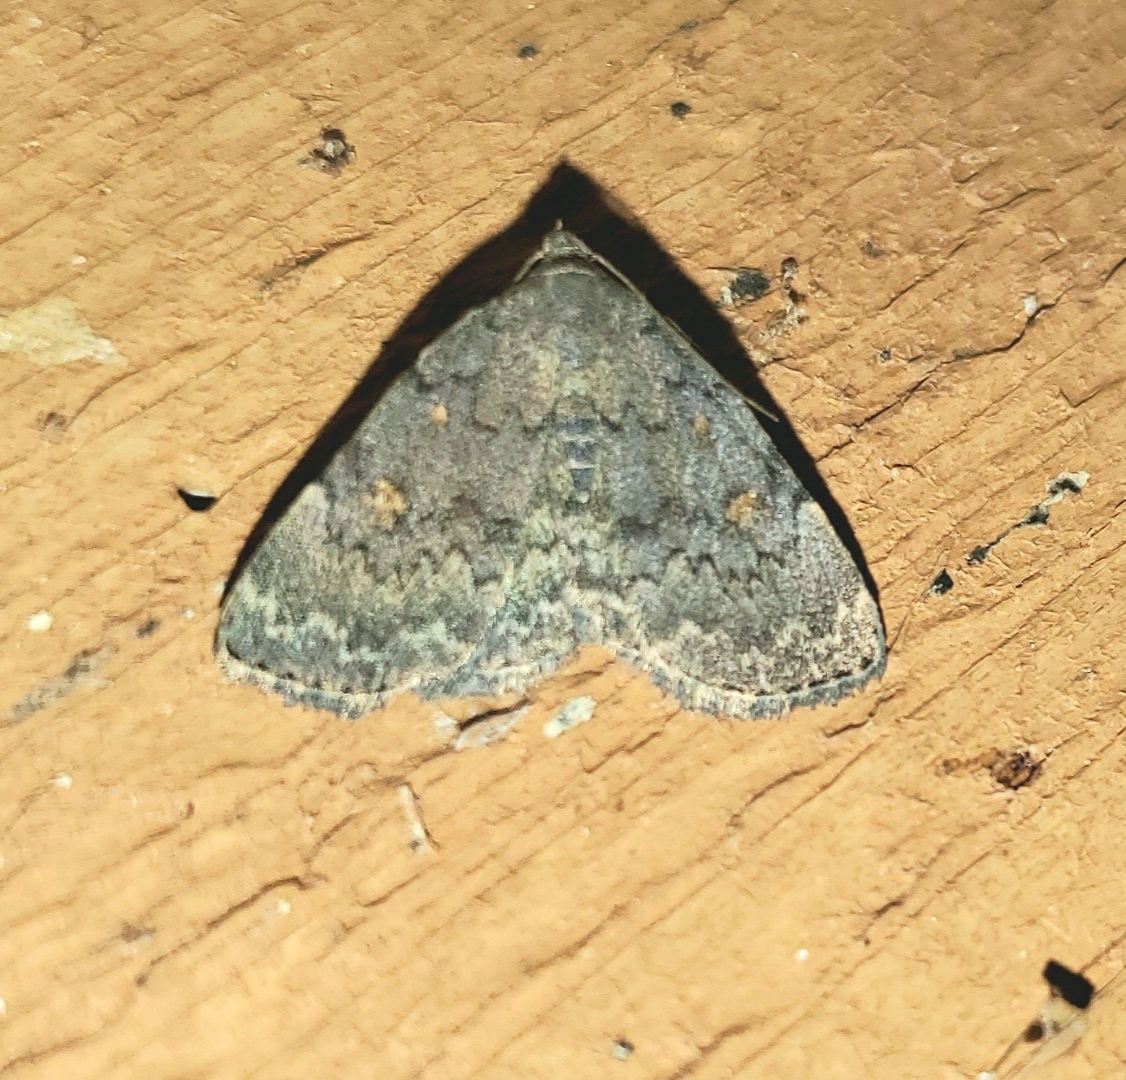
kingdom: Animalia
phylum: Arthropoda
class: Insecta
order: Lepidoptera
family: Erebidae
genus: Idia
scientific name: Idia aemula
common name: Common idia moth
